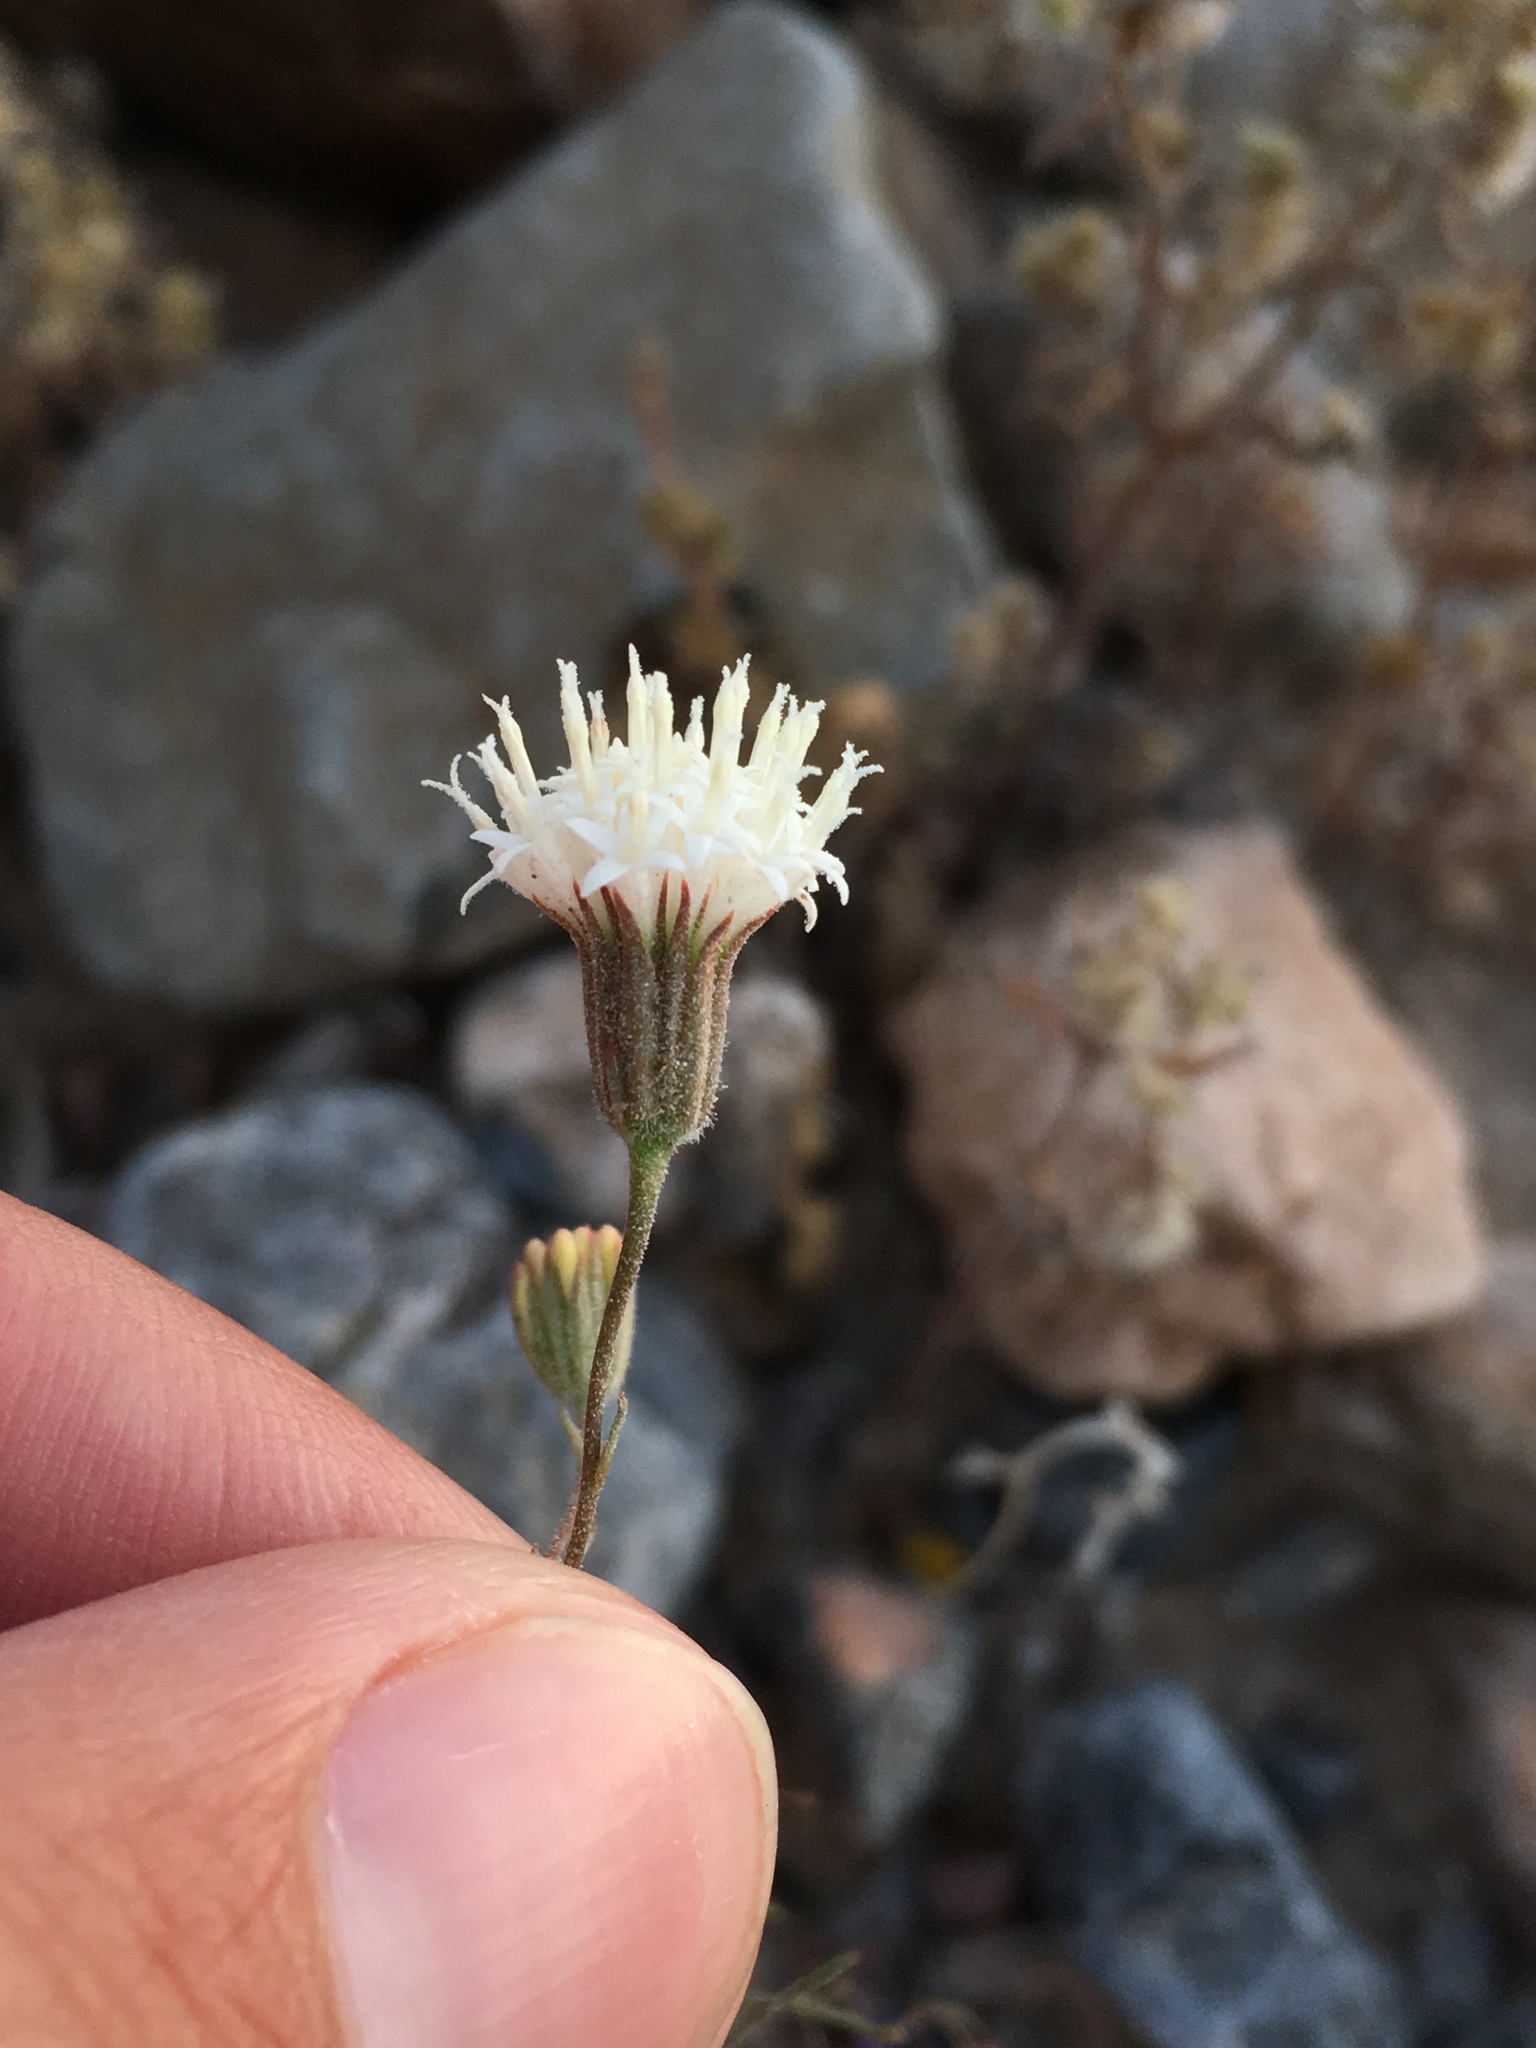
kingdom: Plantae
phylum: Tracheophyta
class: Magnoliopsida
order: Asterales
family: Asteraceae
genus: Chaenactis
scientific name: Chaenactis carphoclinia
